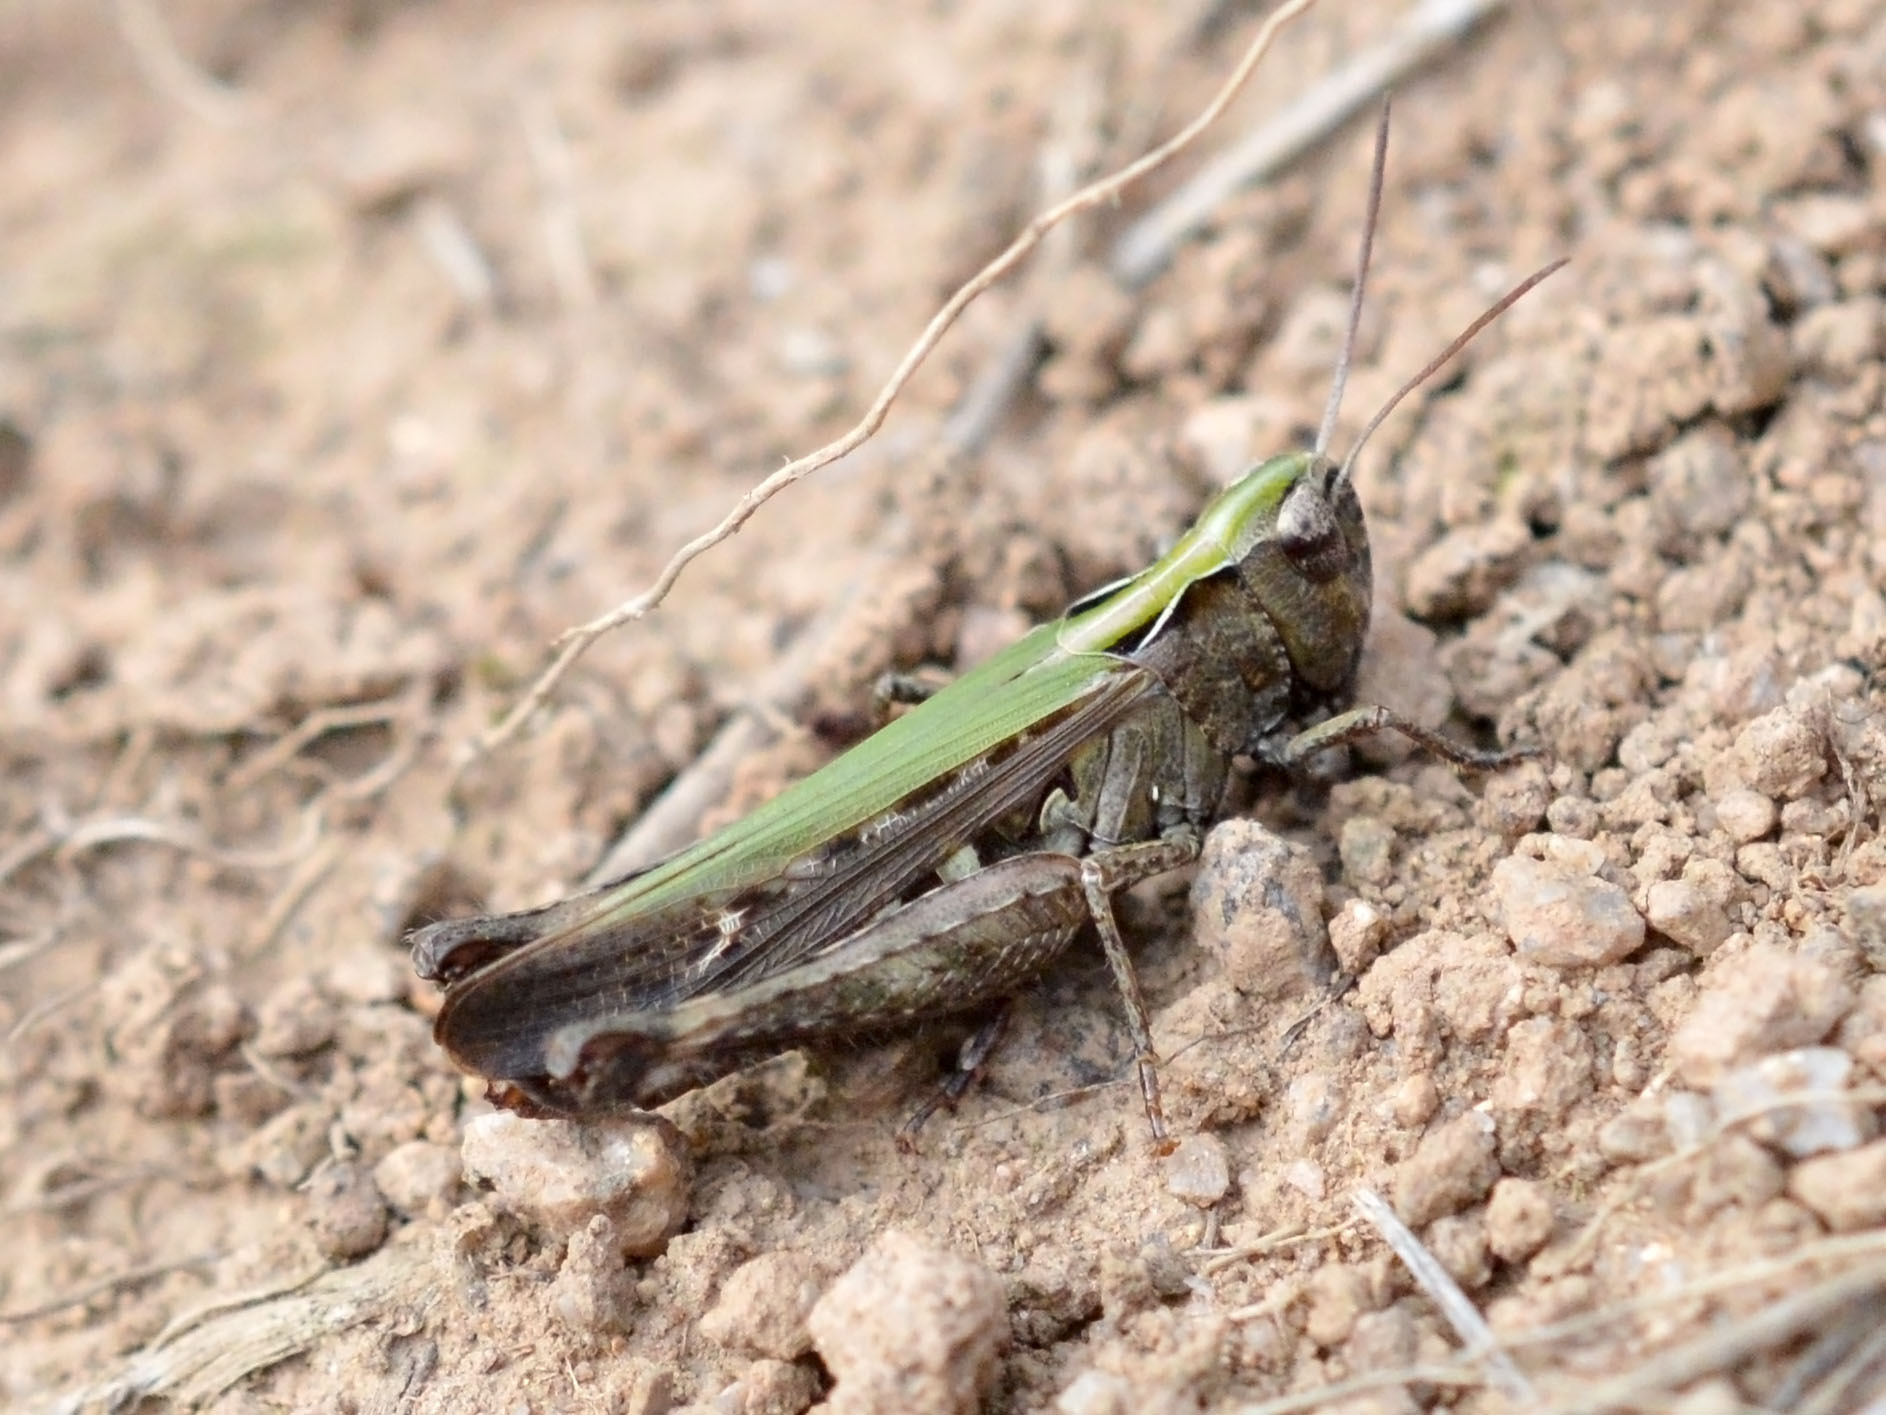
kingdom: Animalia
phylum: Arthropoda
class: Insecta
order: Orthoptera
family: Acrididae
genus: Omocestus
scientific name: Omocestus rufipes
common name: Woodland grasshopper
